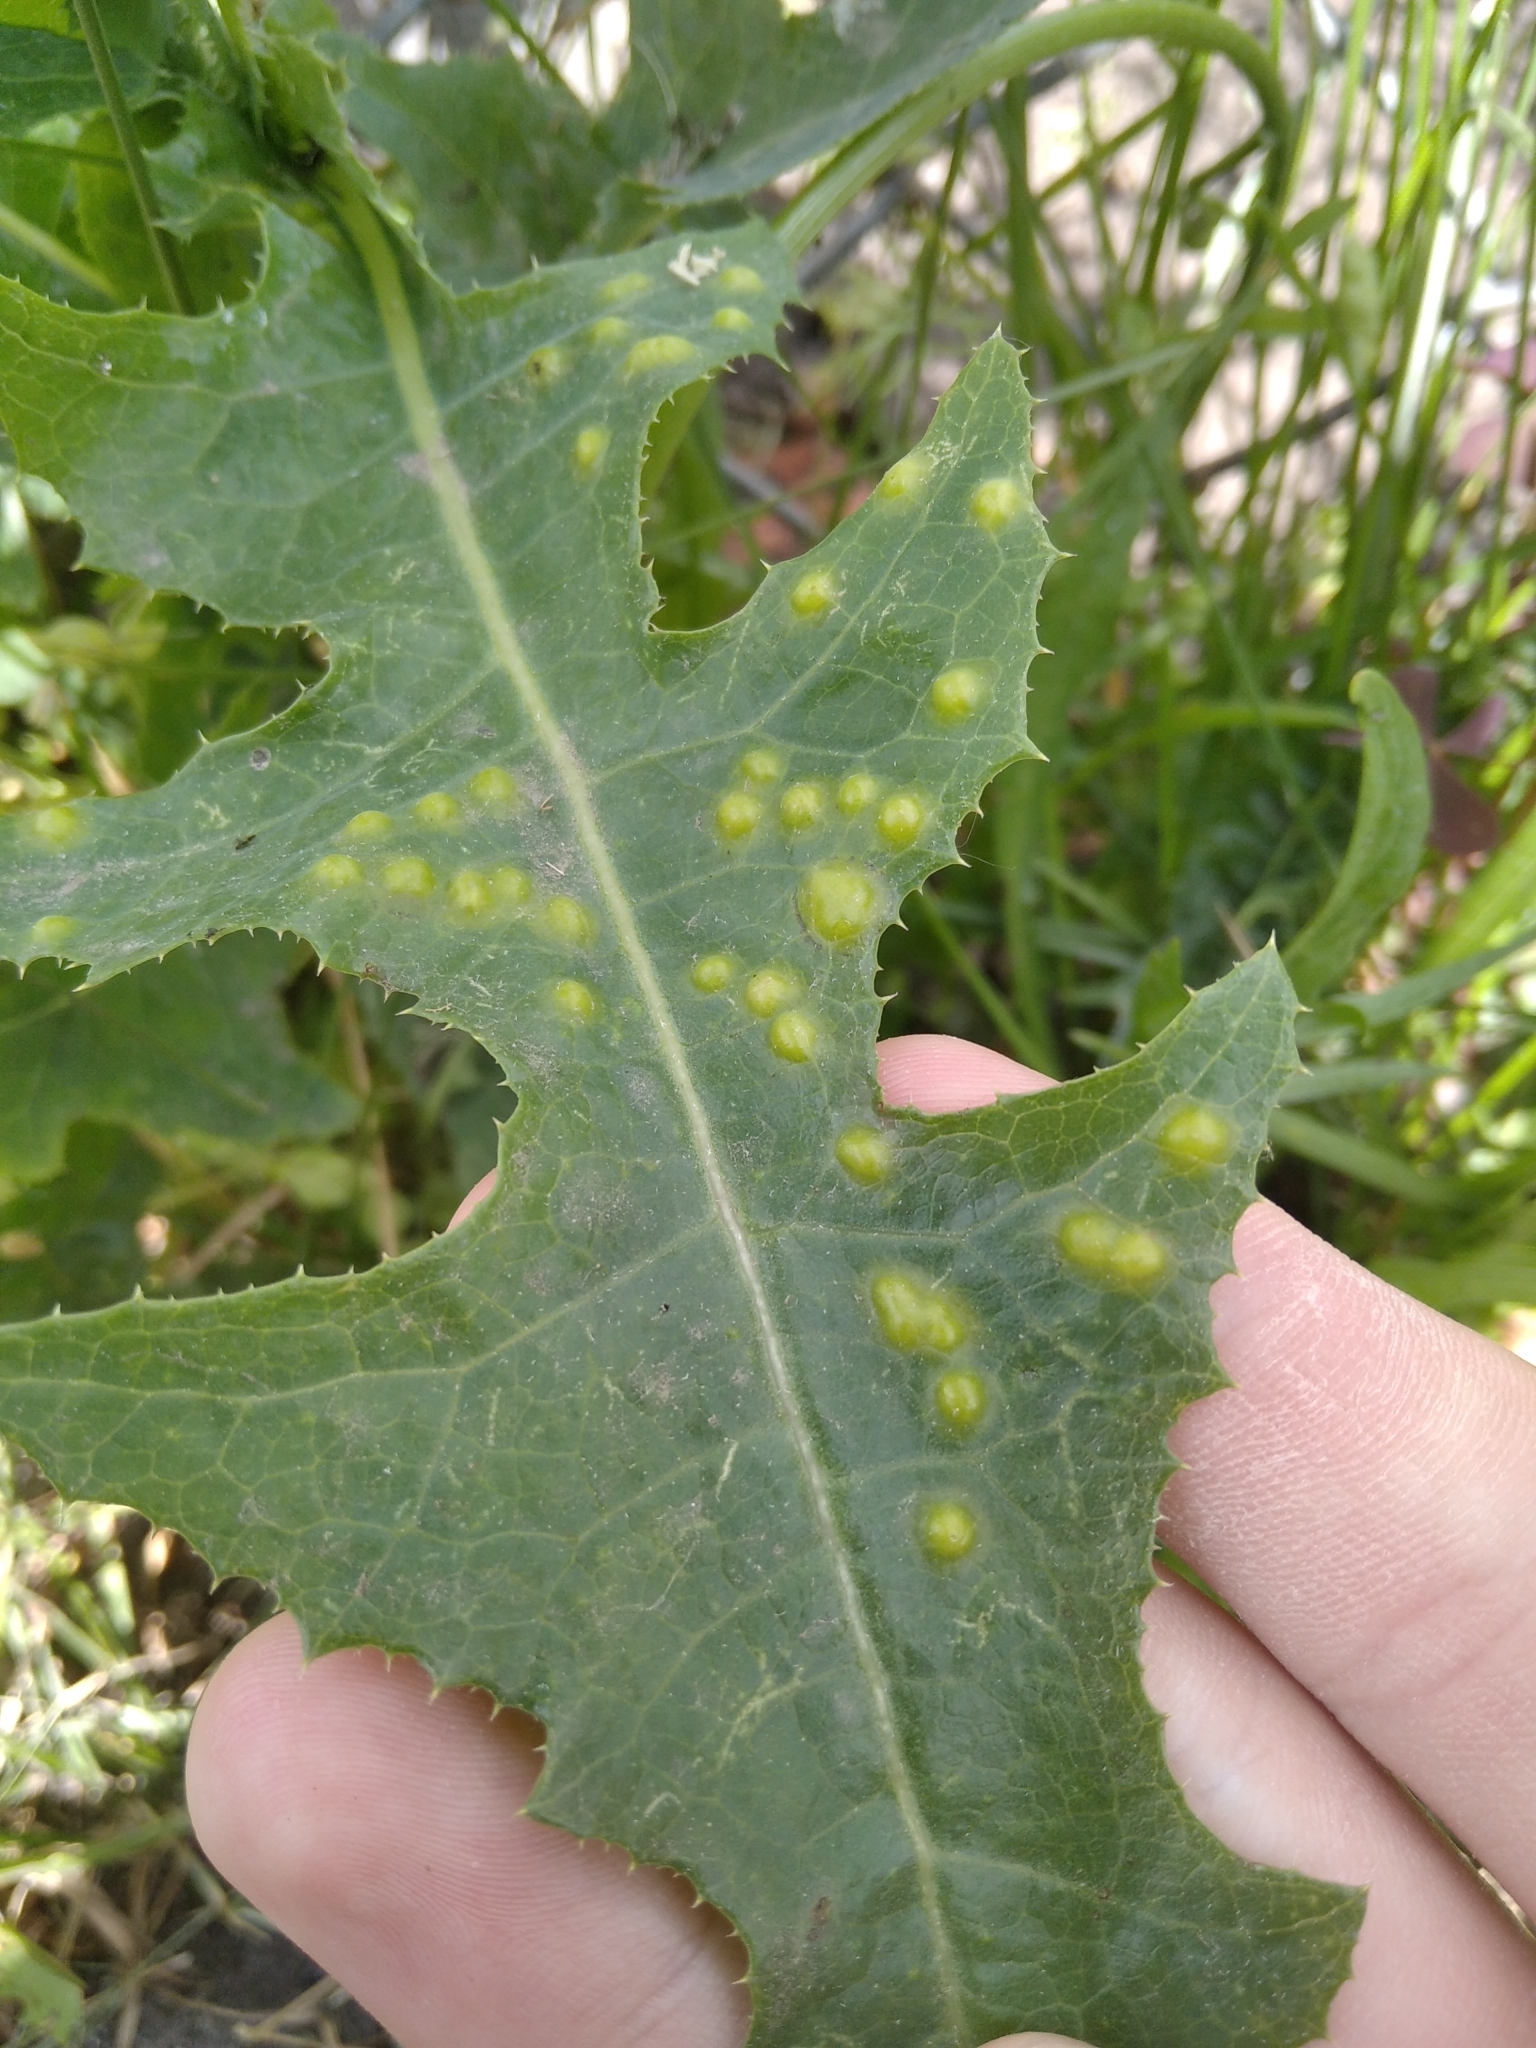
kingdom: Animalia
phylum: Arthropoda
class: Insecta
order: Diptera
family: Cecidomyiidae
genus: Cystiphora
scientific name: Cystiphora sonchi
